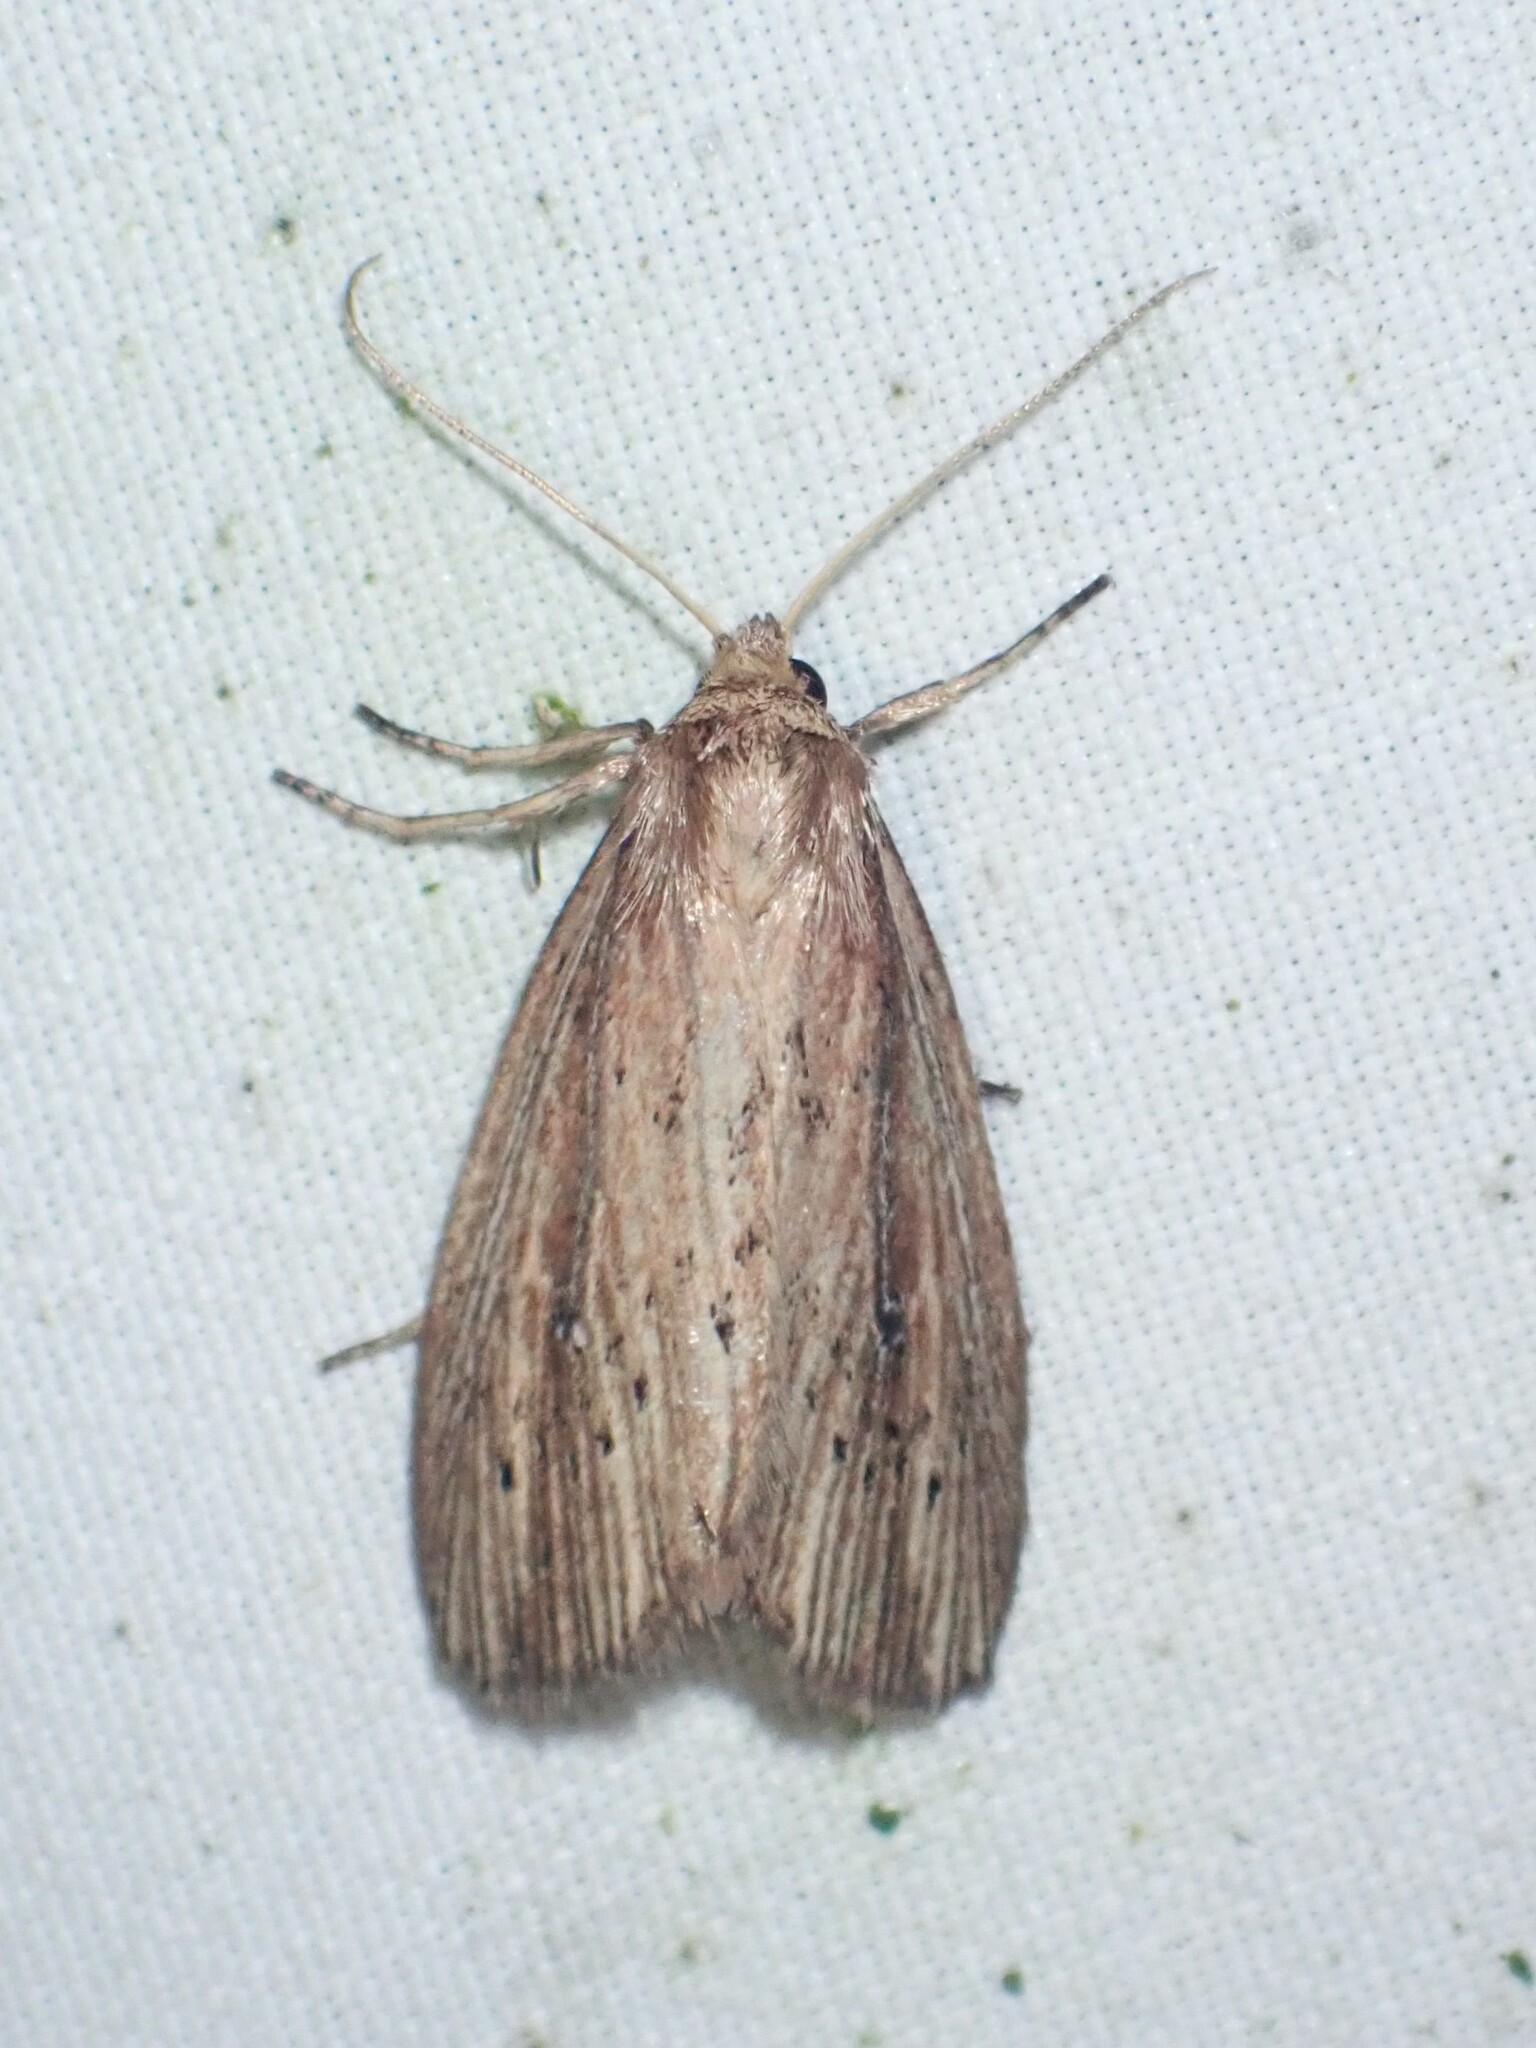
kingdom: Animalia
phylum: Arthropoda
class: Insecta
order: Lepidoptera
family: Noctuidae
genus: Photedes
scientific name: Photedes defecta
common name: Narrow-winged borer moth
